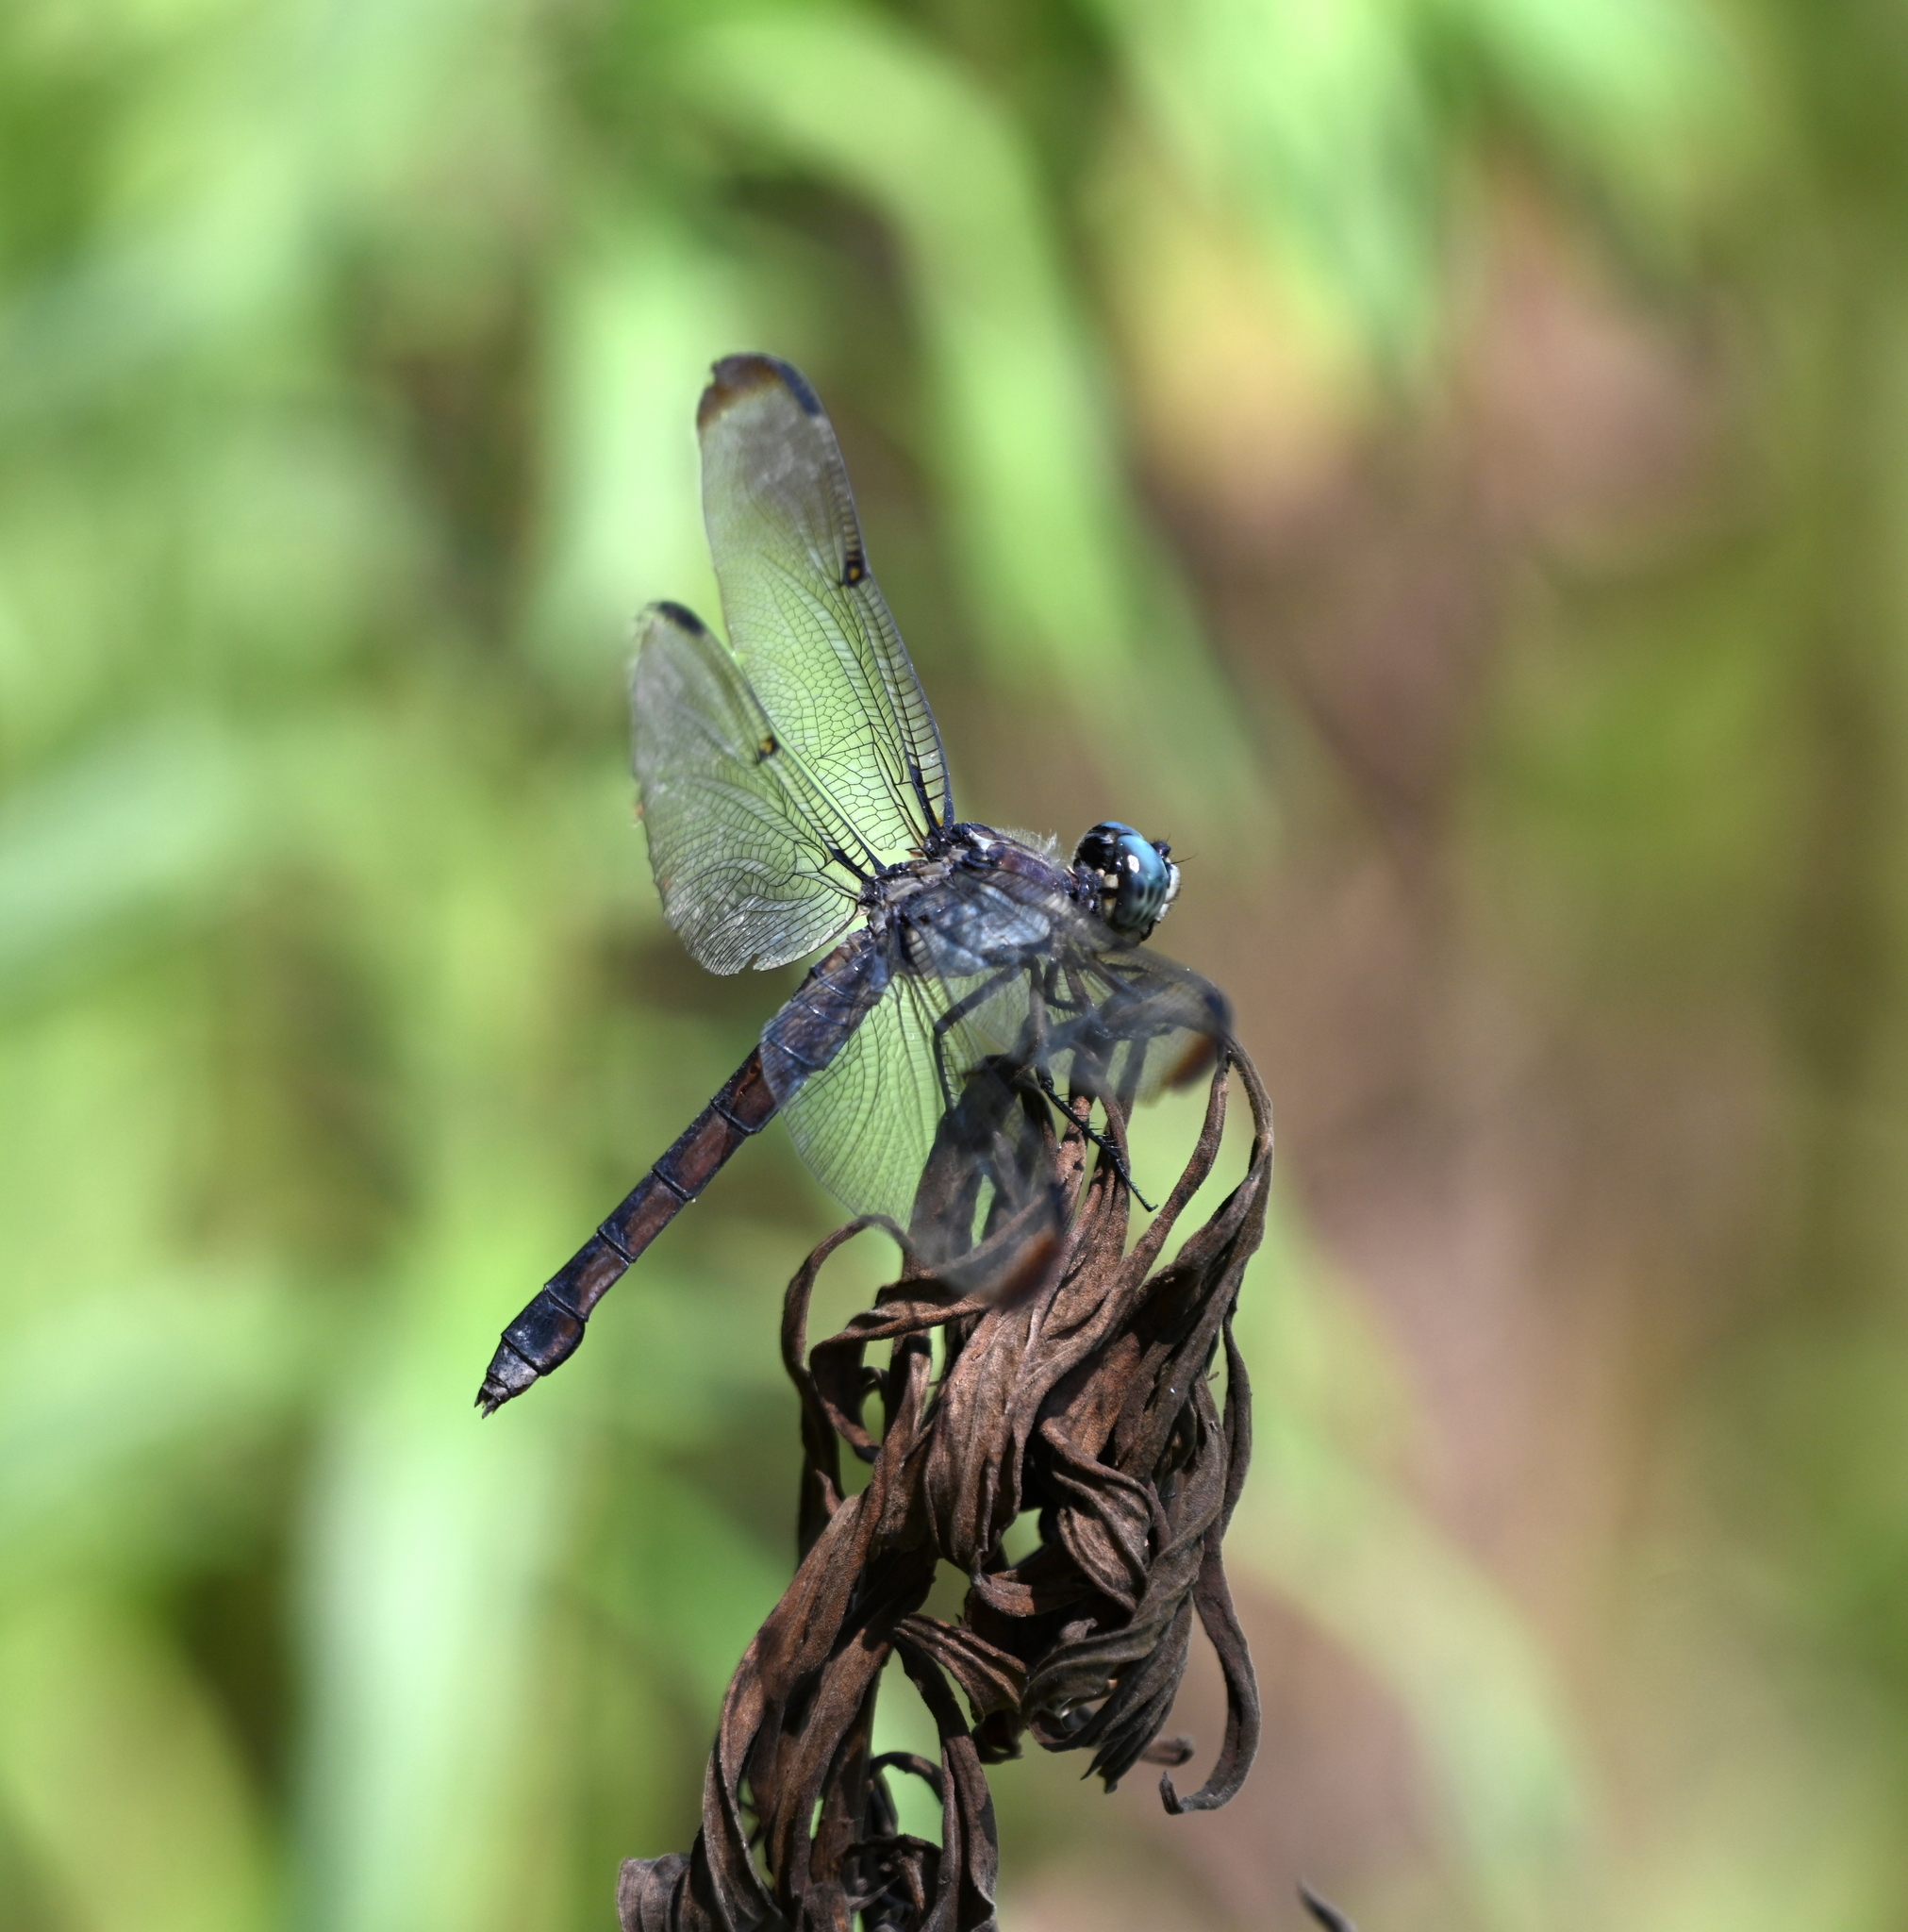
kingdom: Animalia
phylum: Arthropoda
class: Insecta
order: Odonata
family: Libellulidae
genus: Libellula
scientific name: Libellula vibrans
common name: Great blue skimmer
